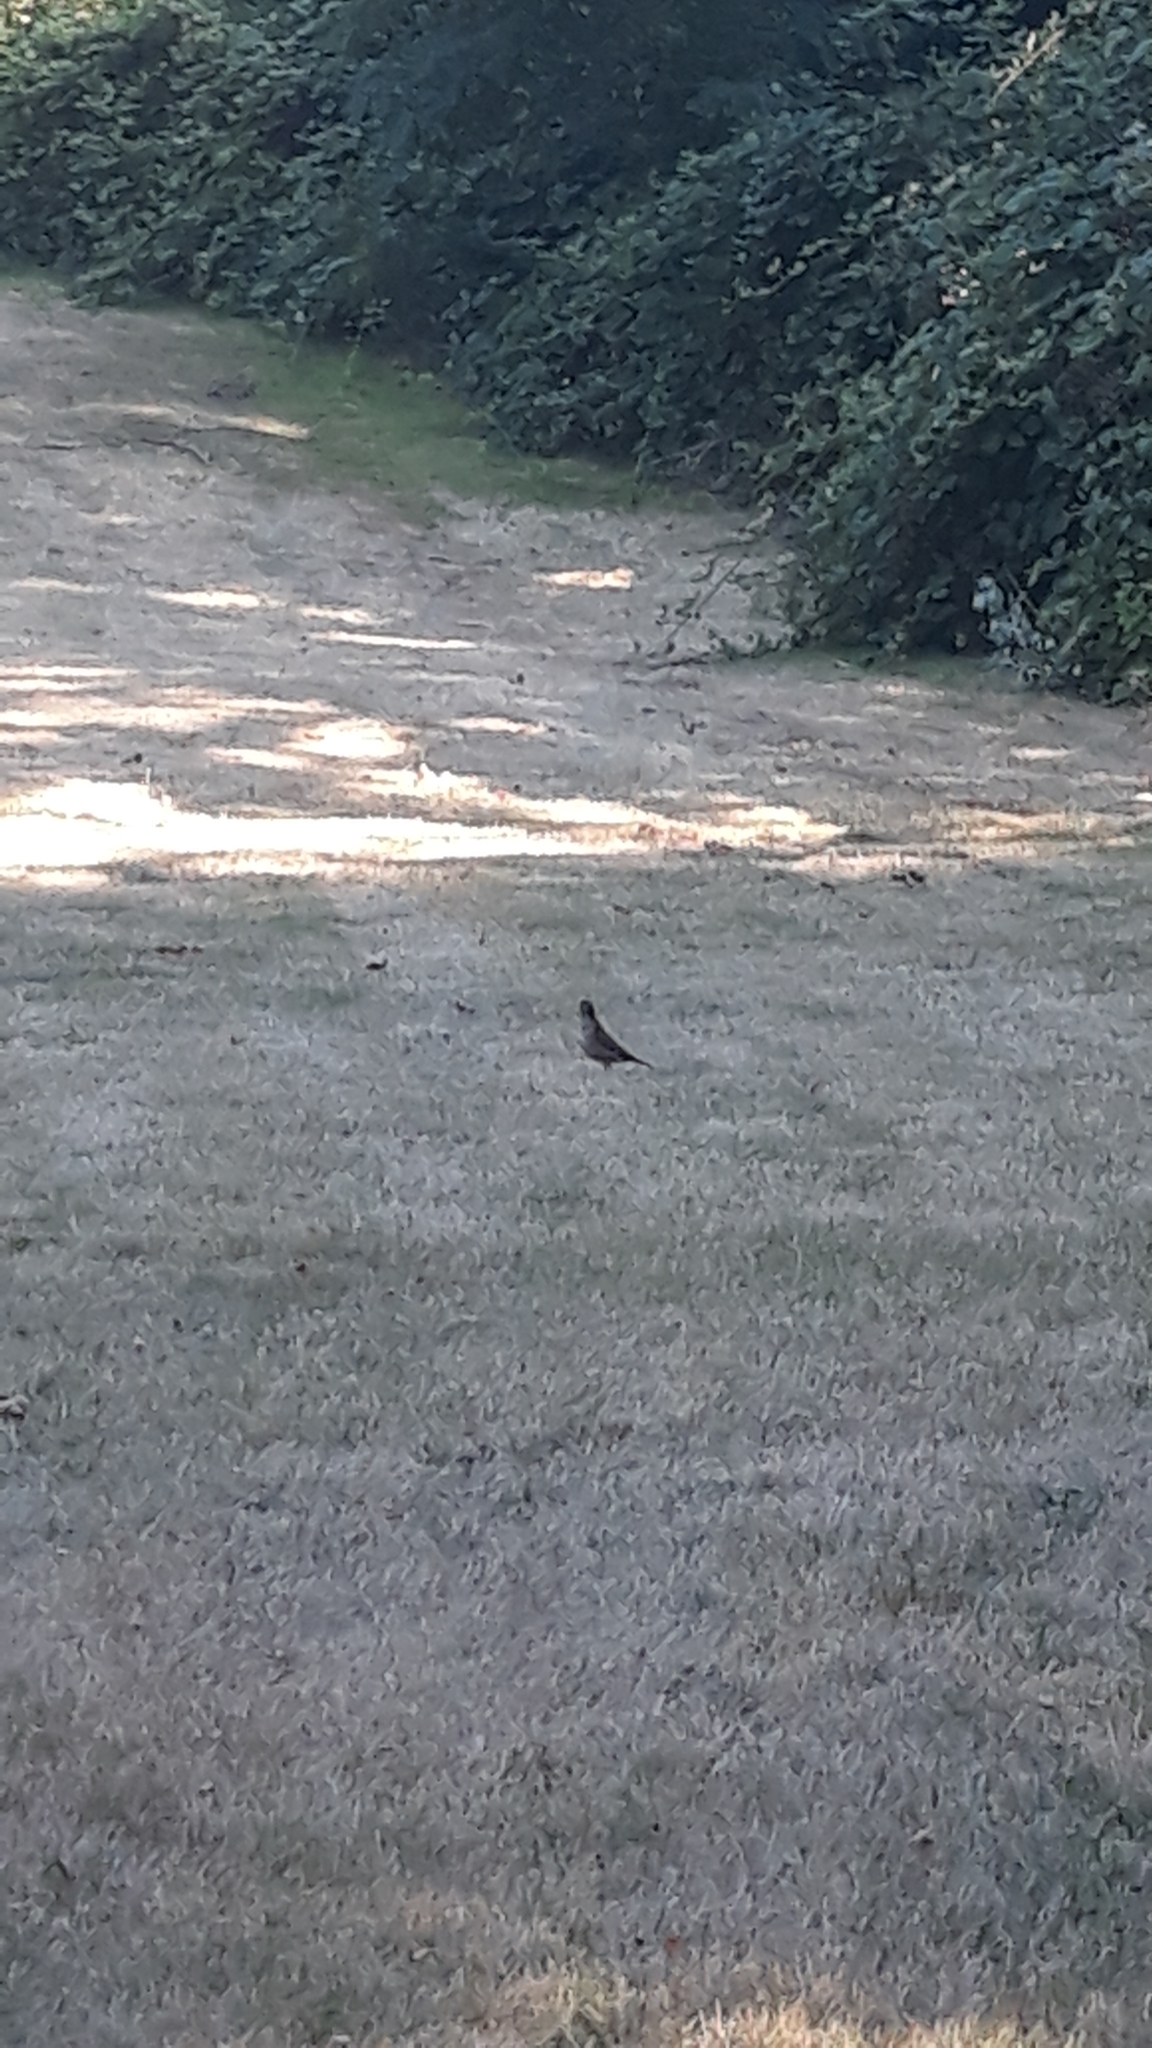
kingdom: Animalia
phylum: Chordata
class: Aves
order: Passeriformes
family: Turdidae
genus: Turdus
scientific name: Turdus migratorius
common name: American robin
